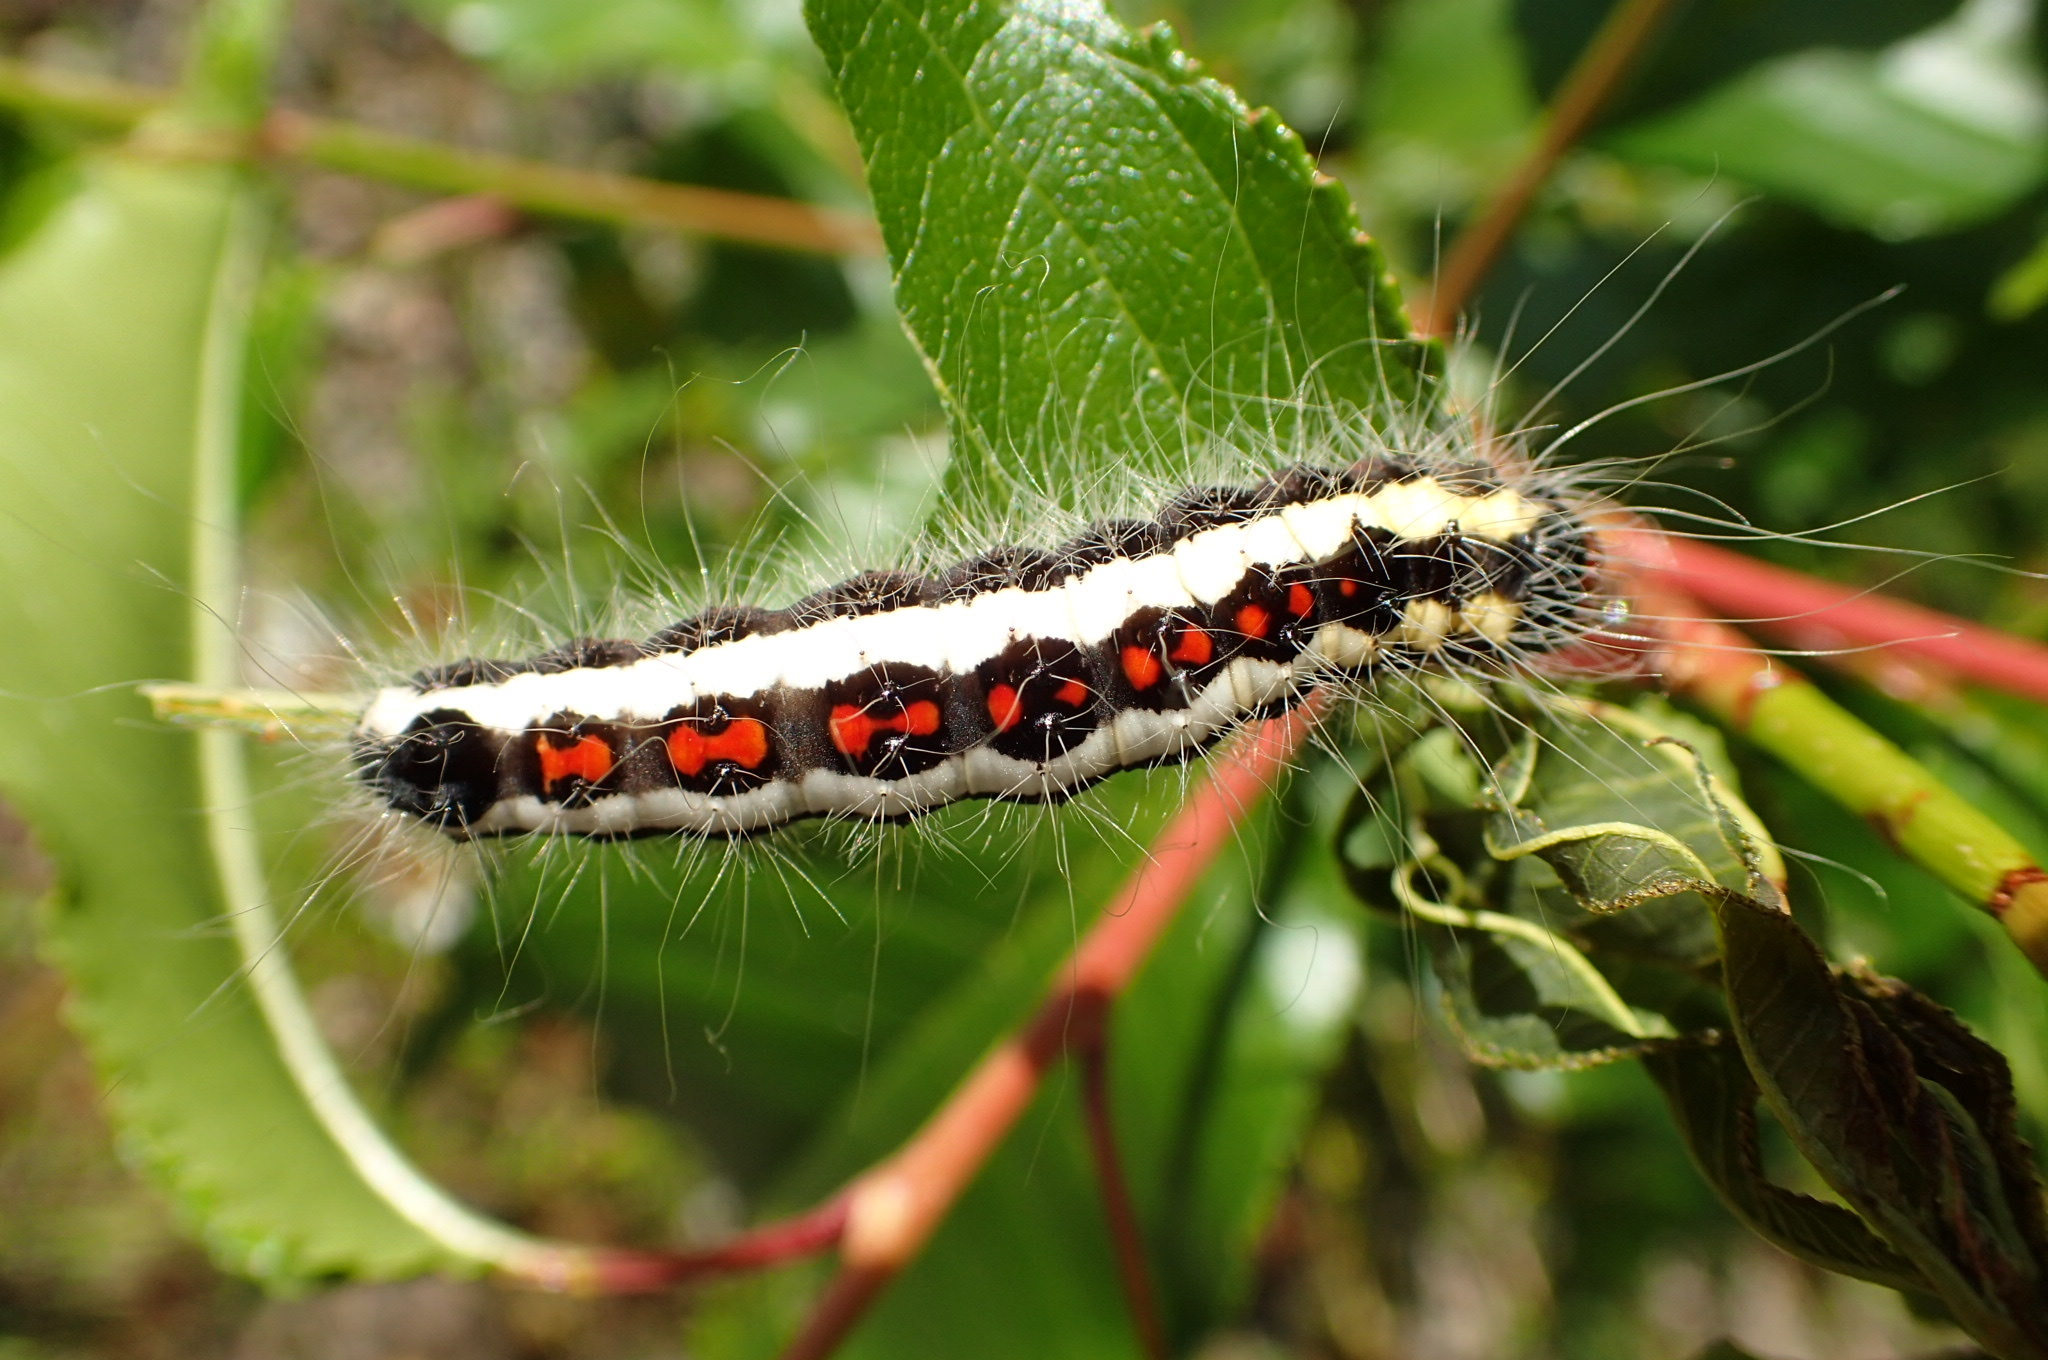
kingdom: Animalia
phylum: Arthropoda
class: Insecta
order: Lepidoptera
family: Noctuidae
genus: Acronicta
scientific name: Acronicta quadrata
